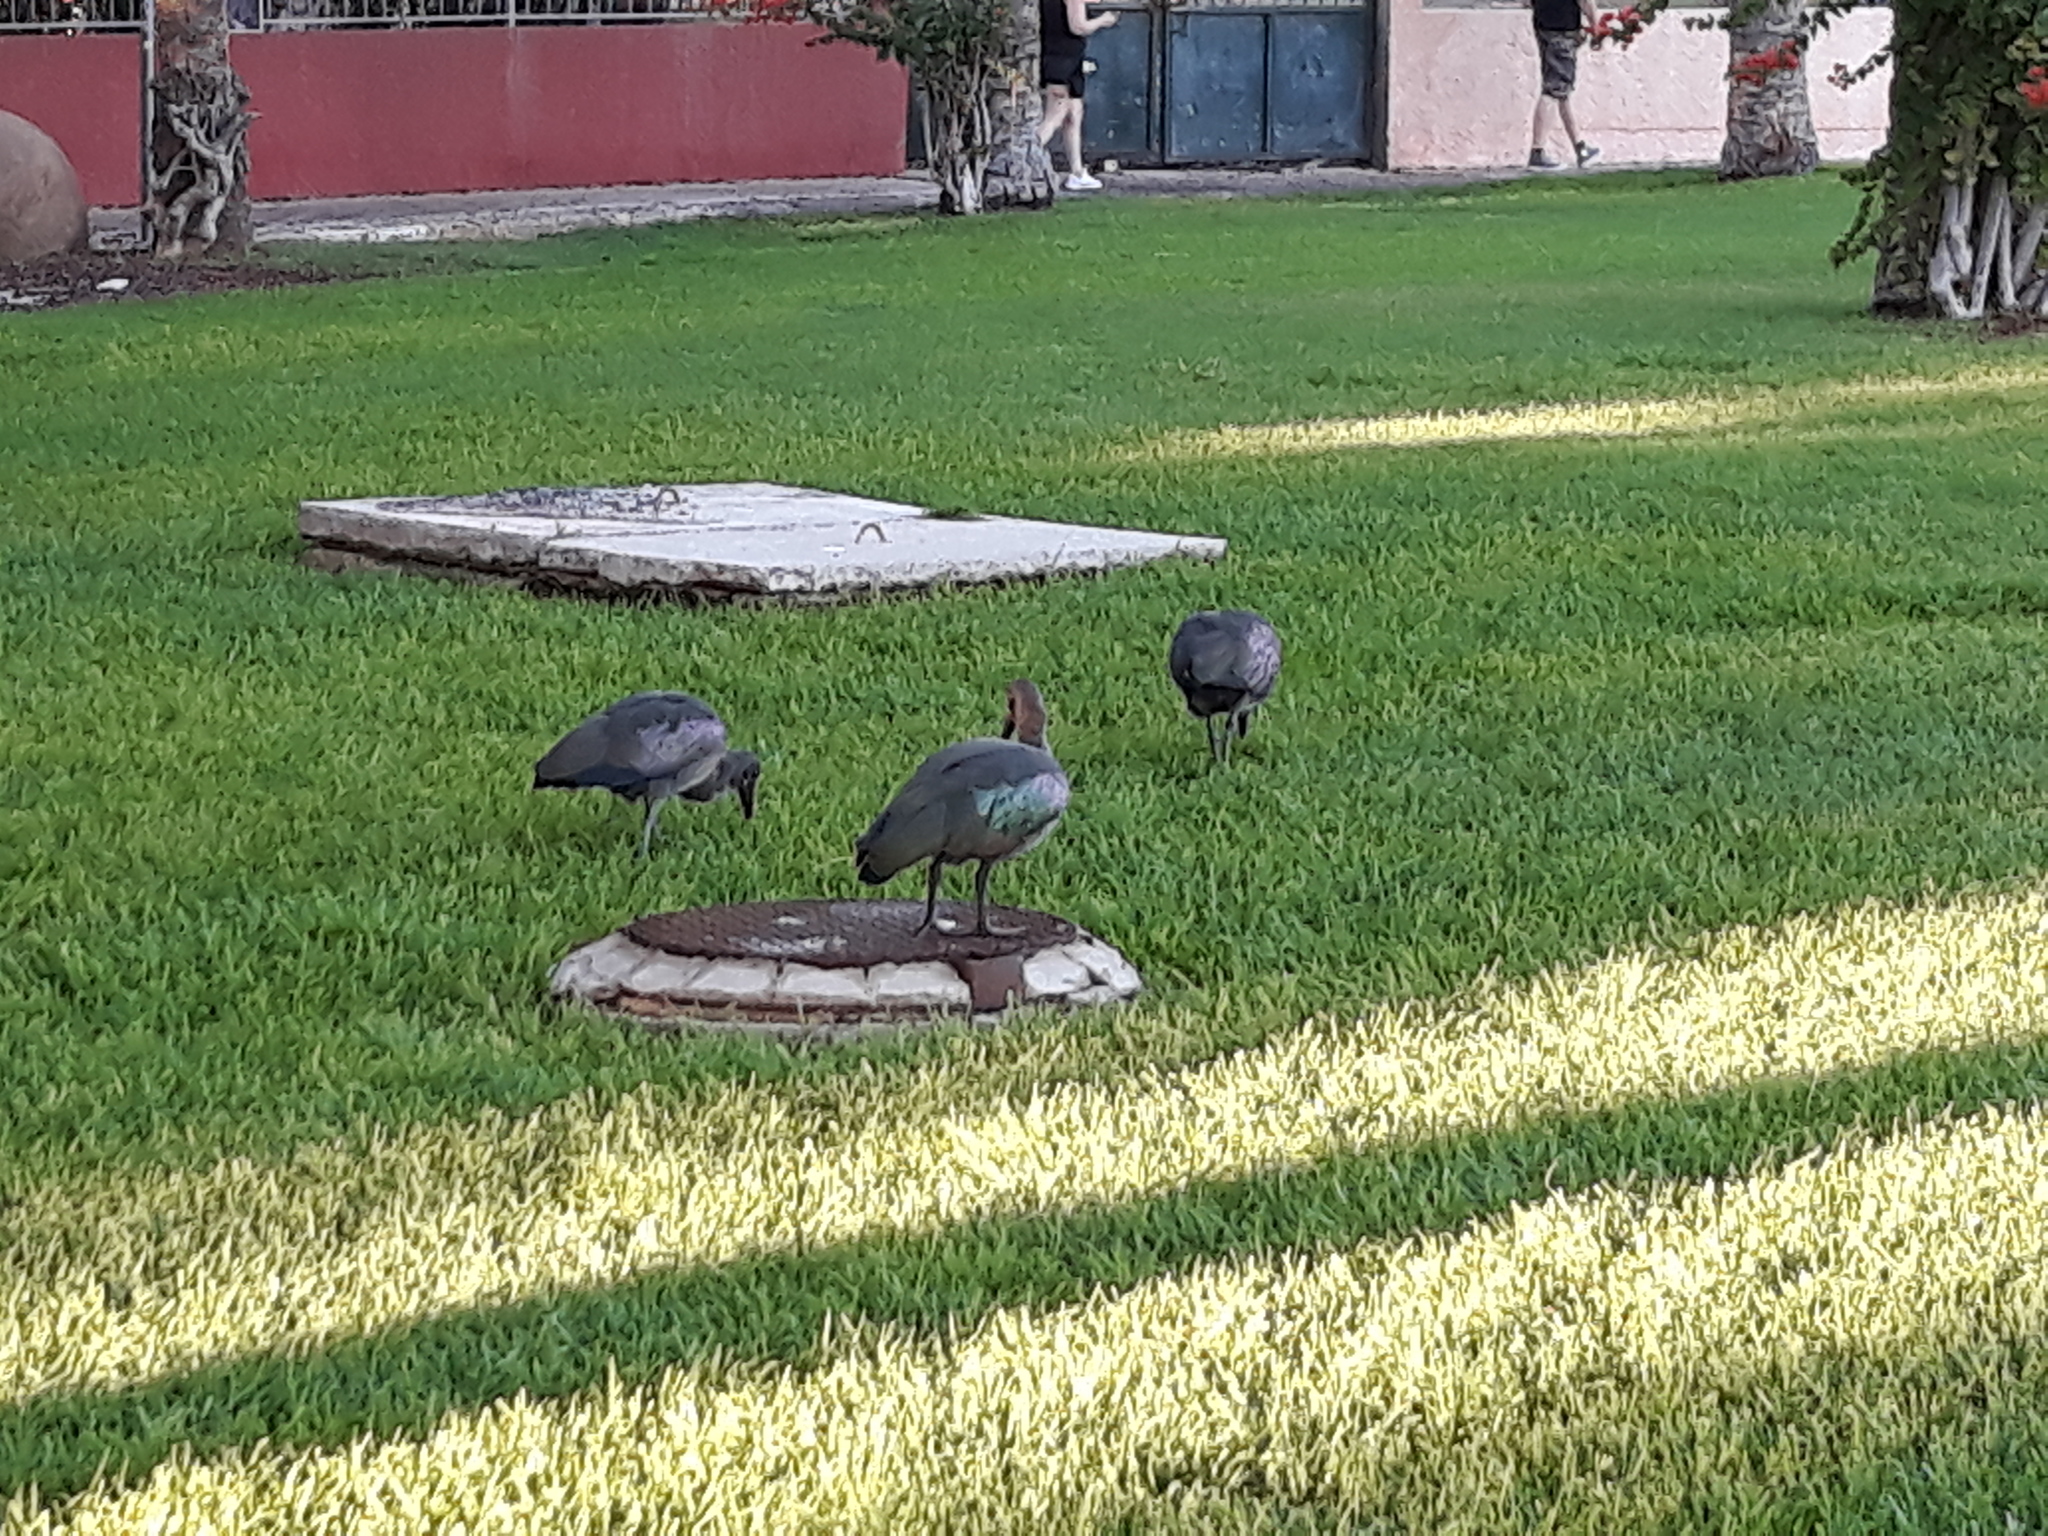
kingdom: Animalia
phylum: Chordata
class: Aves
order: Pelecaniformes
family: Threskiornithidae
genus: Bostrychia
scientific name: Bostrychia hagedash
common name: Hadada ibis
